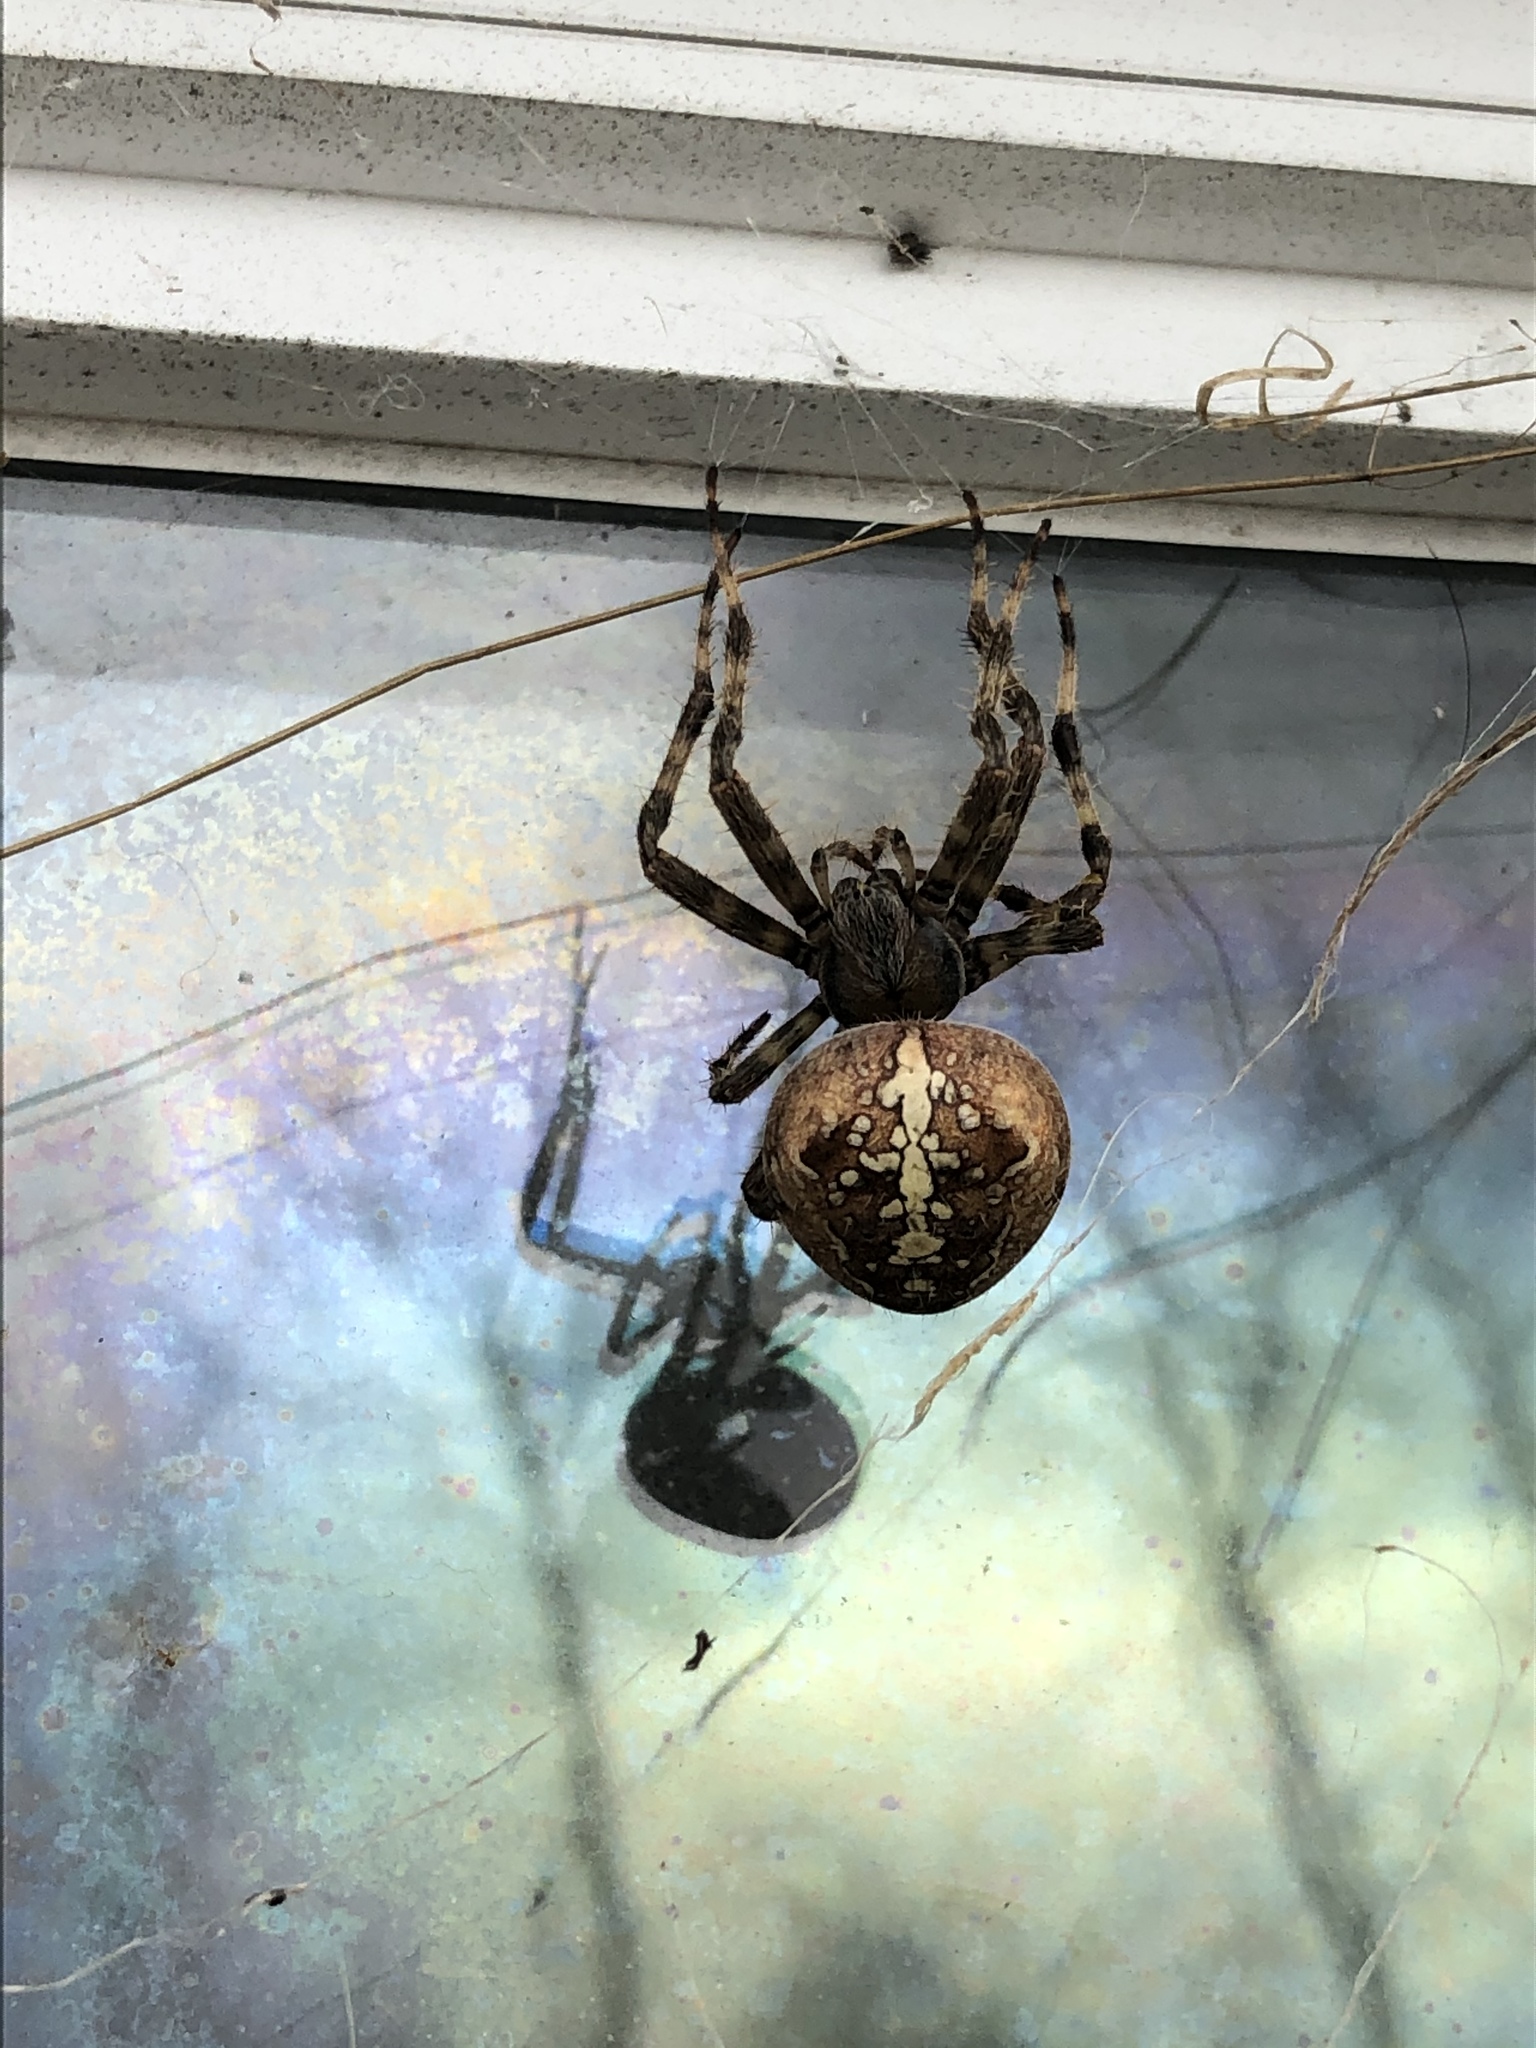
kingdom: Animalia
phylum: Arthropoda
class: Arachnida
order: Araneae
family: Araneidae
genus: Araneus
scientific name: Araneus diadematus
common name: Cross orbweaver
